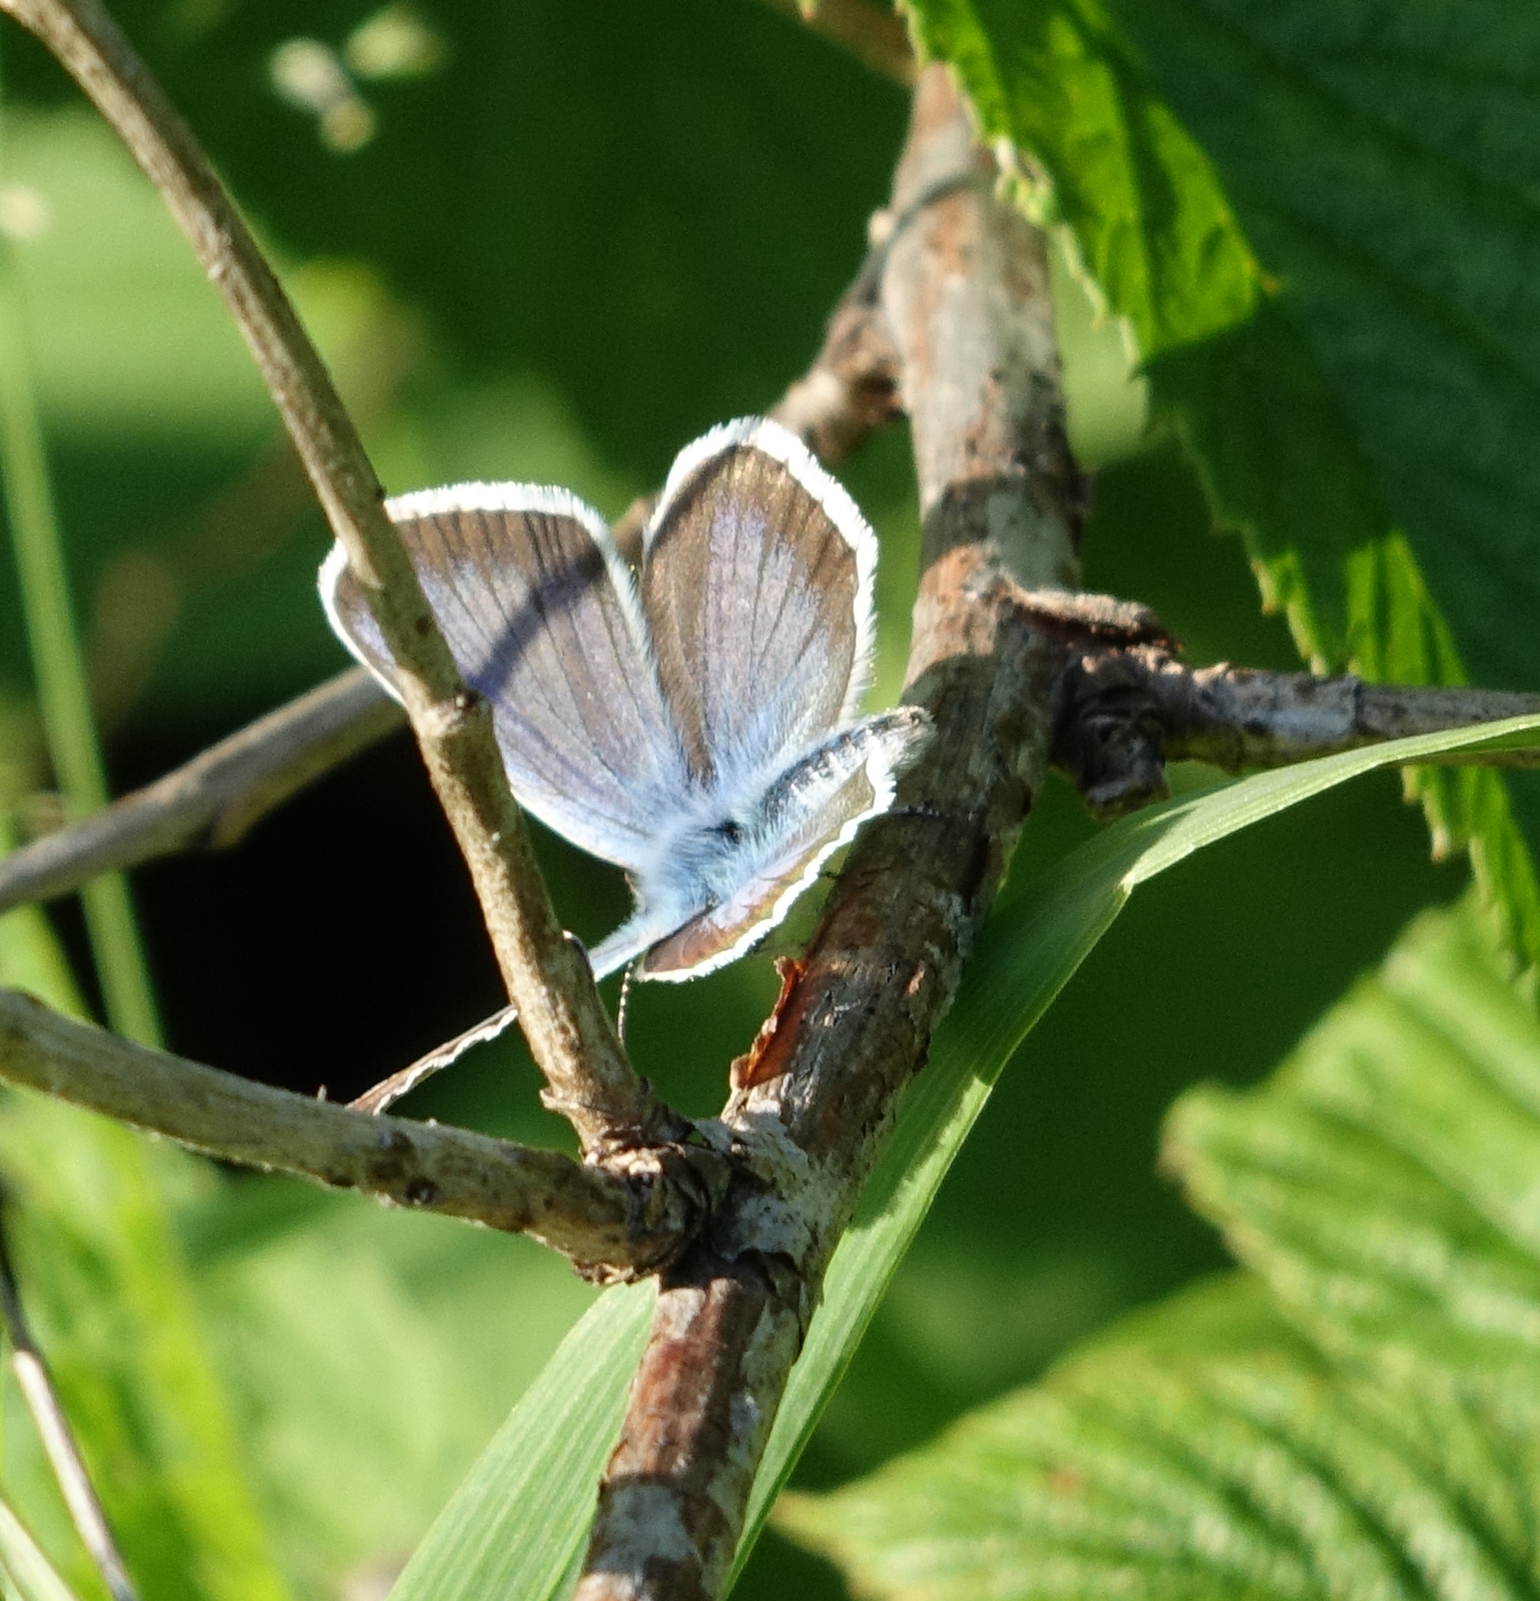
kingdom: Animalia
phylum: Arthropoda
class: Insecta
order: Lepidoptera
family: Lycaenidae
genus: Plebejus
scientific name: Plebejus argus
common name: Silver-studded blue
